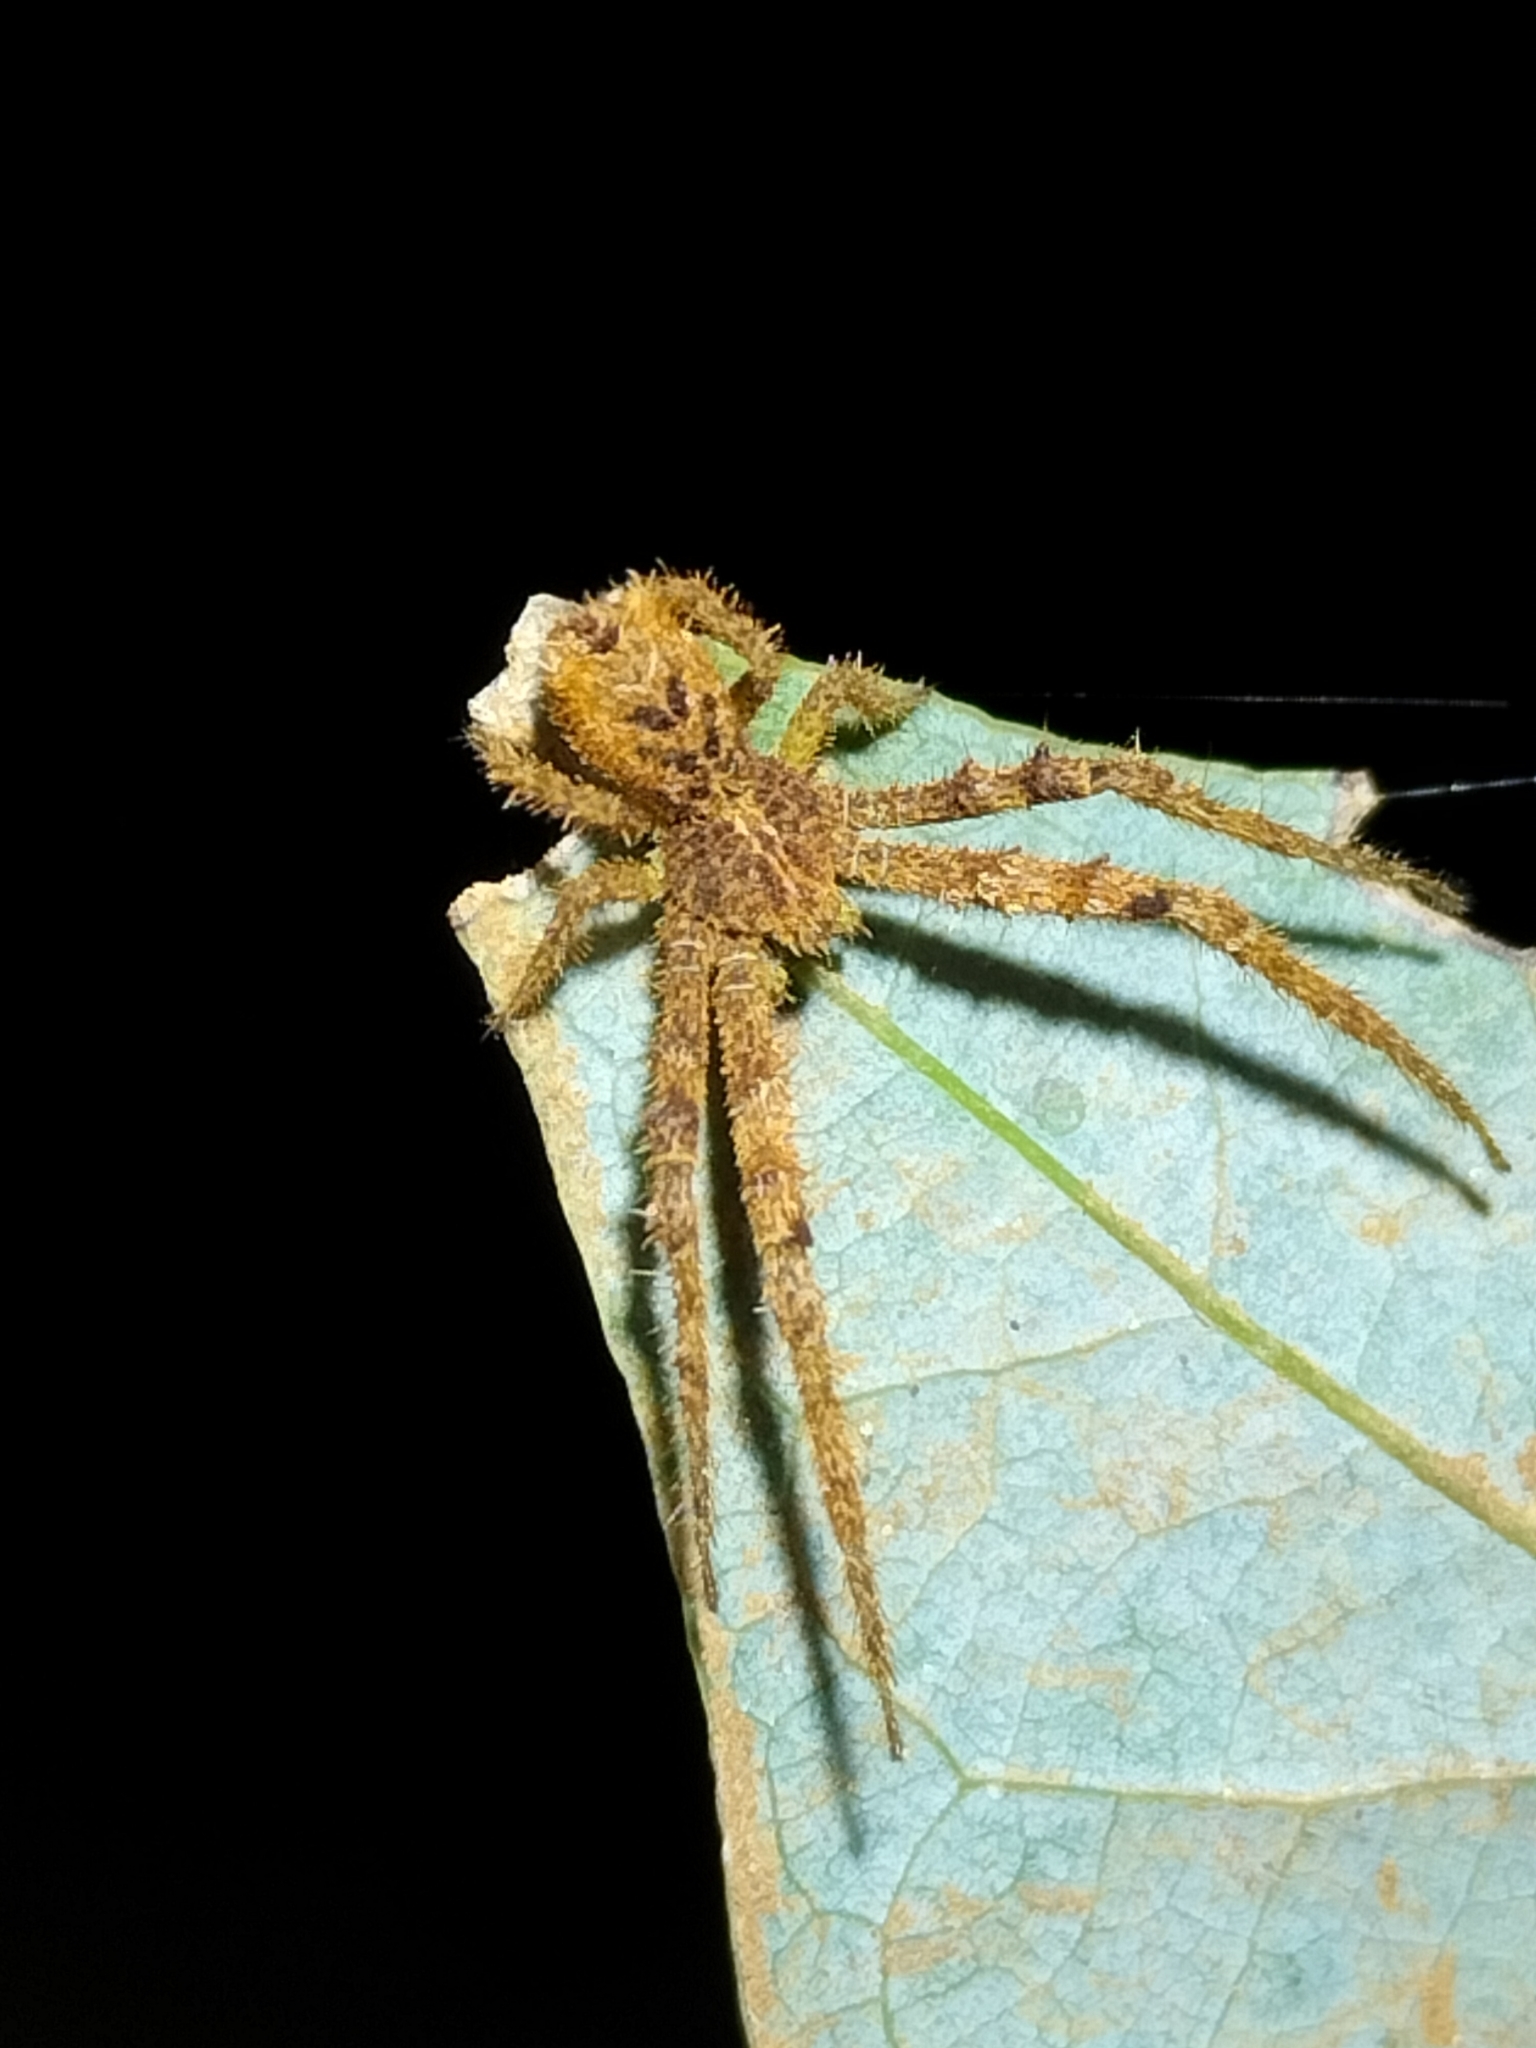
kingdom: Animalia
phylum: Arthropoda
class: Arachnida
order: Araneae
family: Thomisidae
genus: Sidymella
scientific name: Sidymella hirsuta
